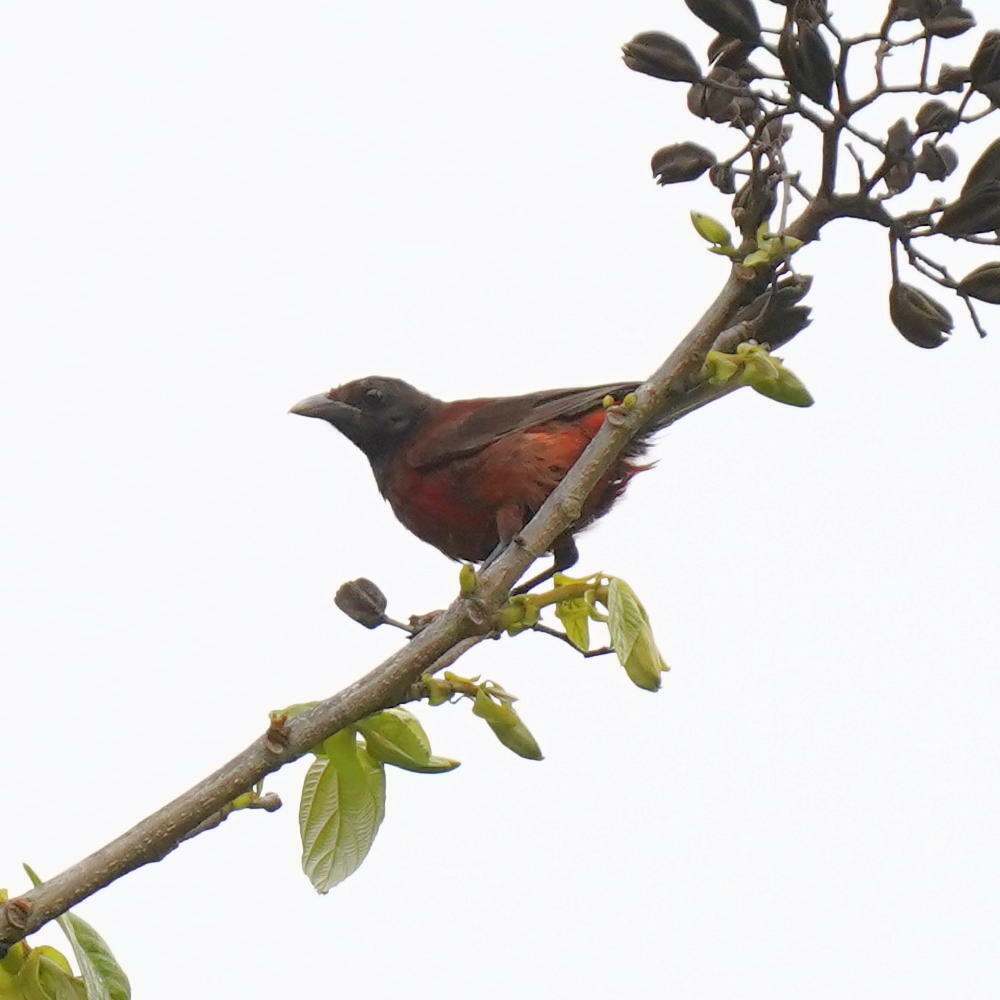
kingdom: Animalia
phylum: Chordata
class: Aves
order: Passeriformes
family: Thraupidae
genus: Ramphocelus
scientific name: Ramphocelus dimidiatus
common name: Crimson-backed tanager
